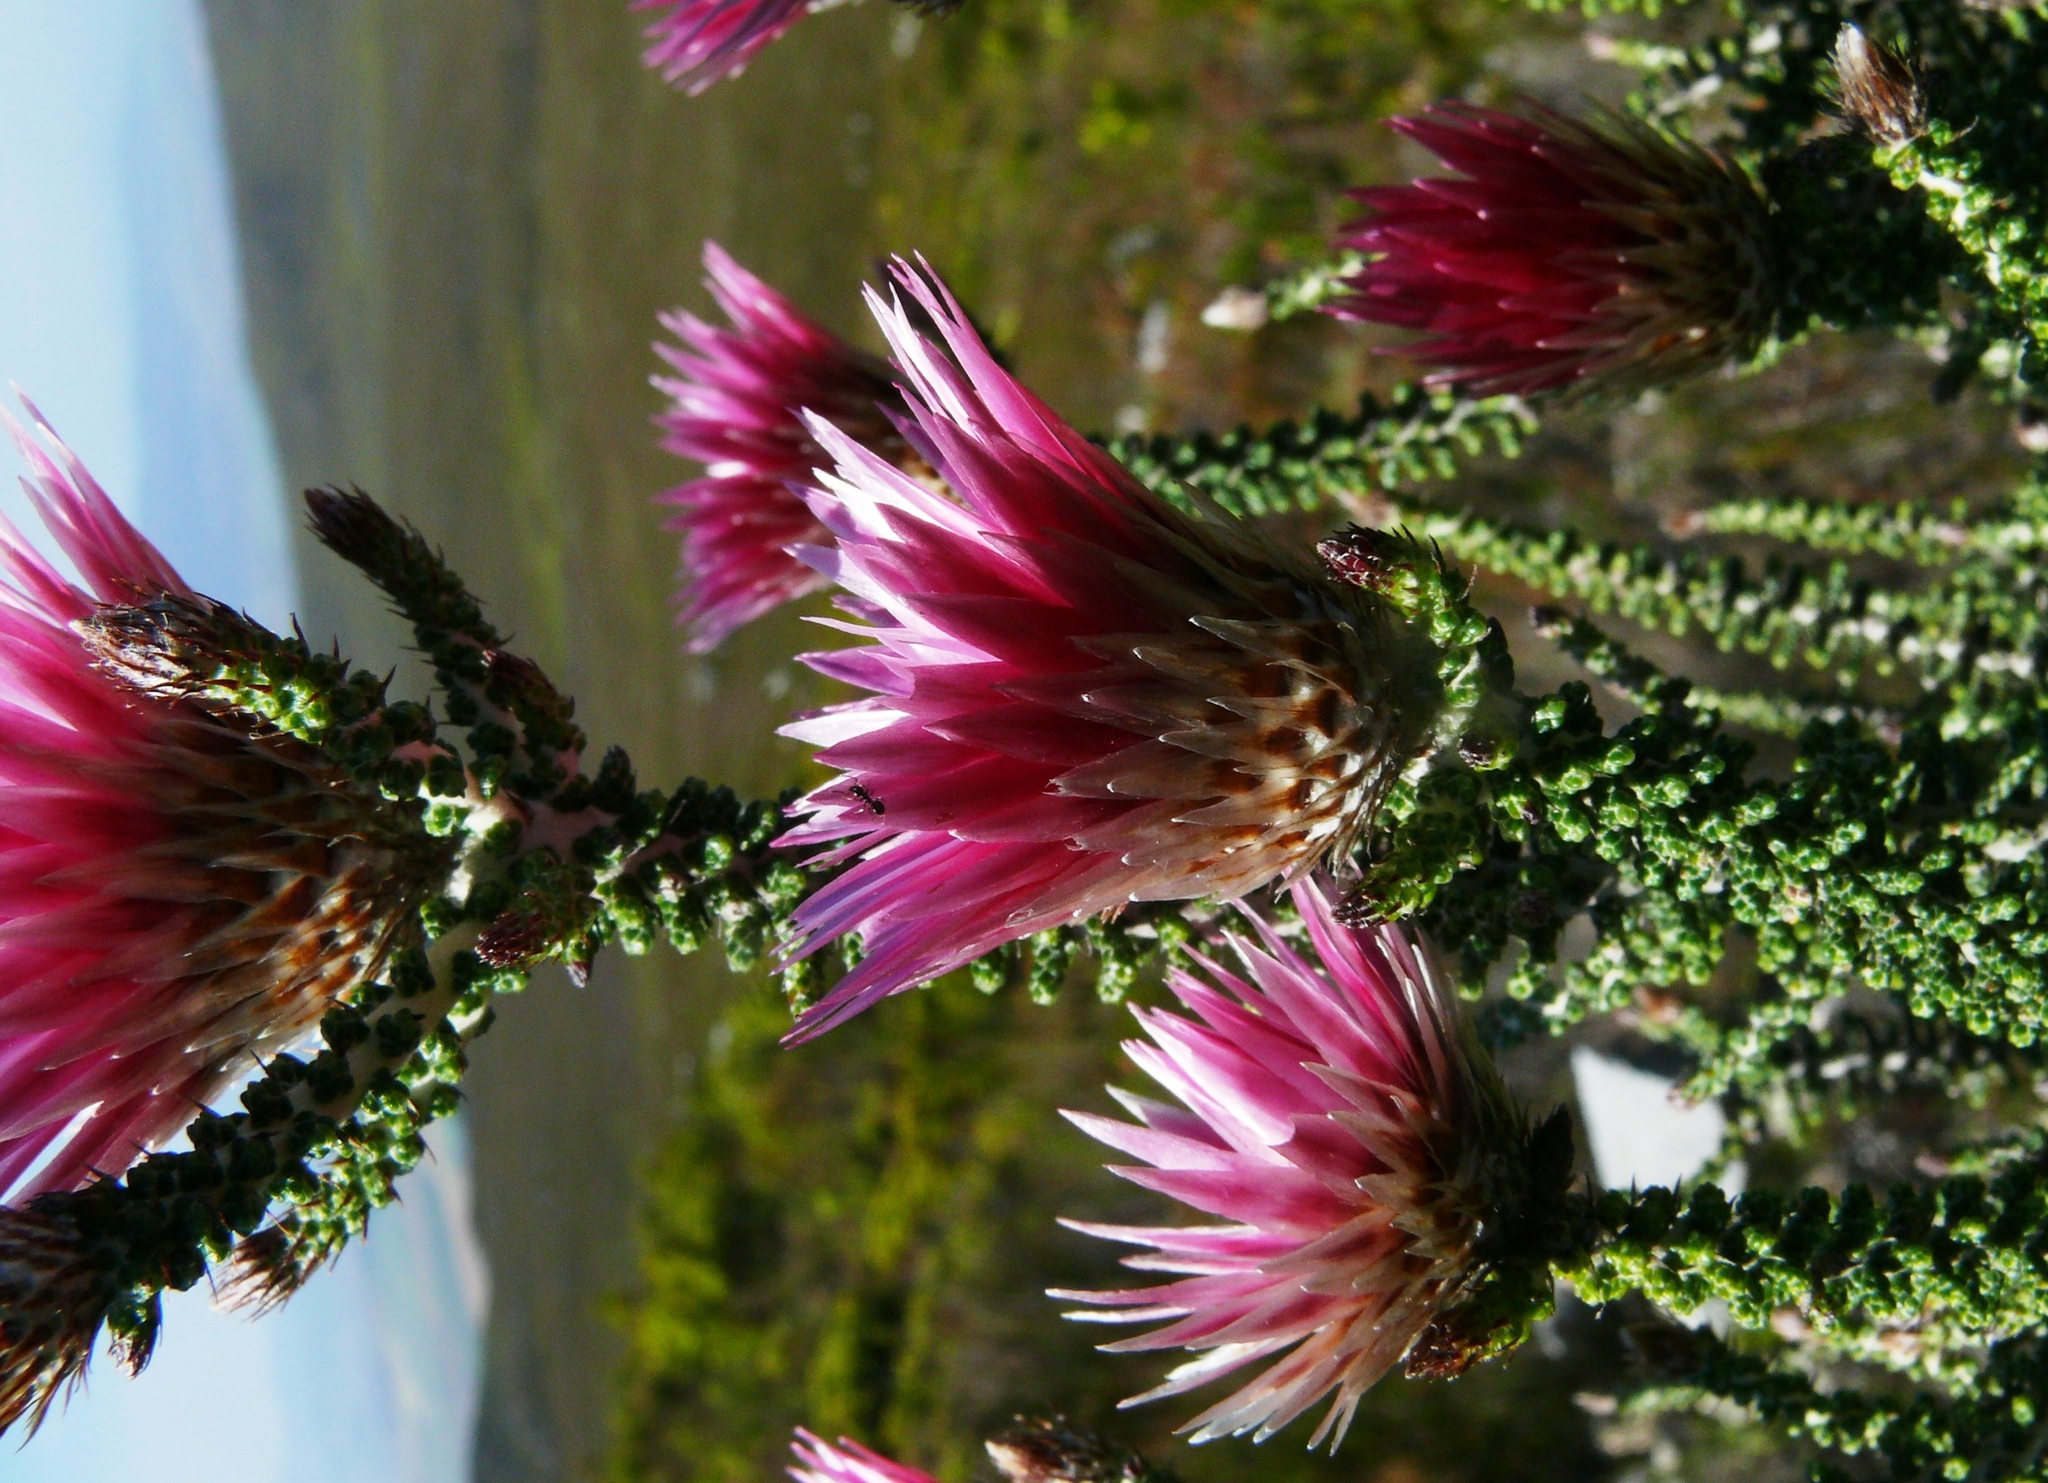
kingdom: Plantae
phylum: Tracheophyta
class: Magnoliopsida
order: Asterales
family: Asteraceae
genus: Phaenocoma
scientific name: Phaenocoma prolifera
